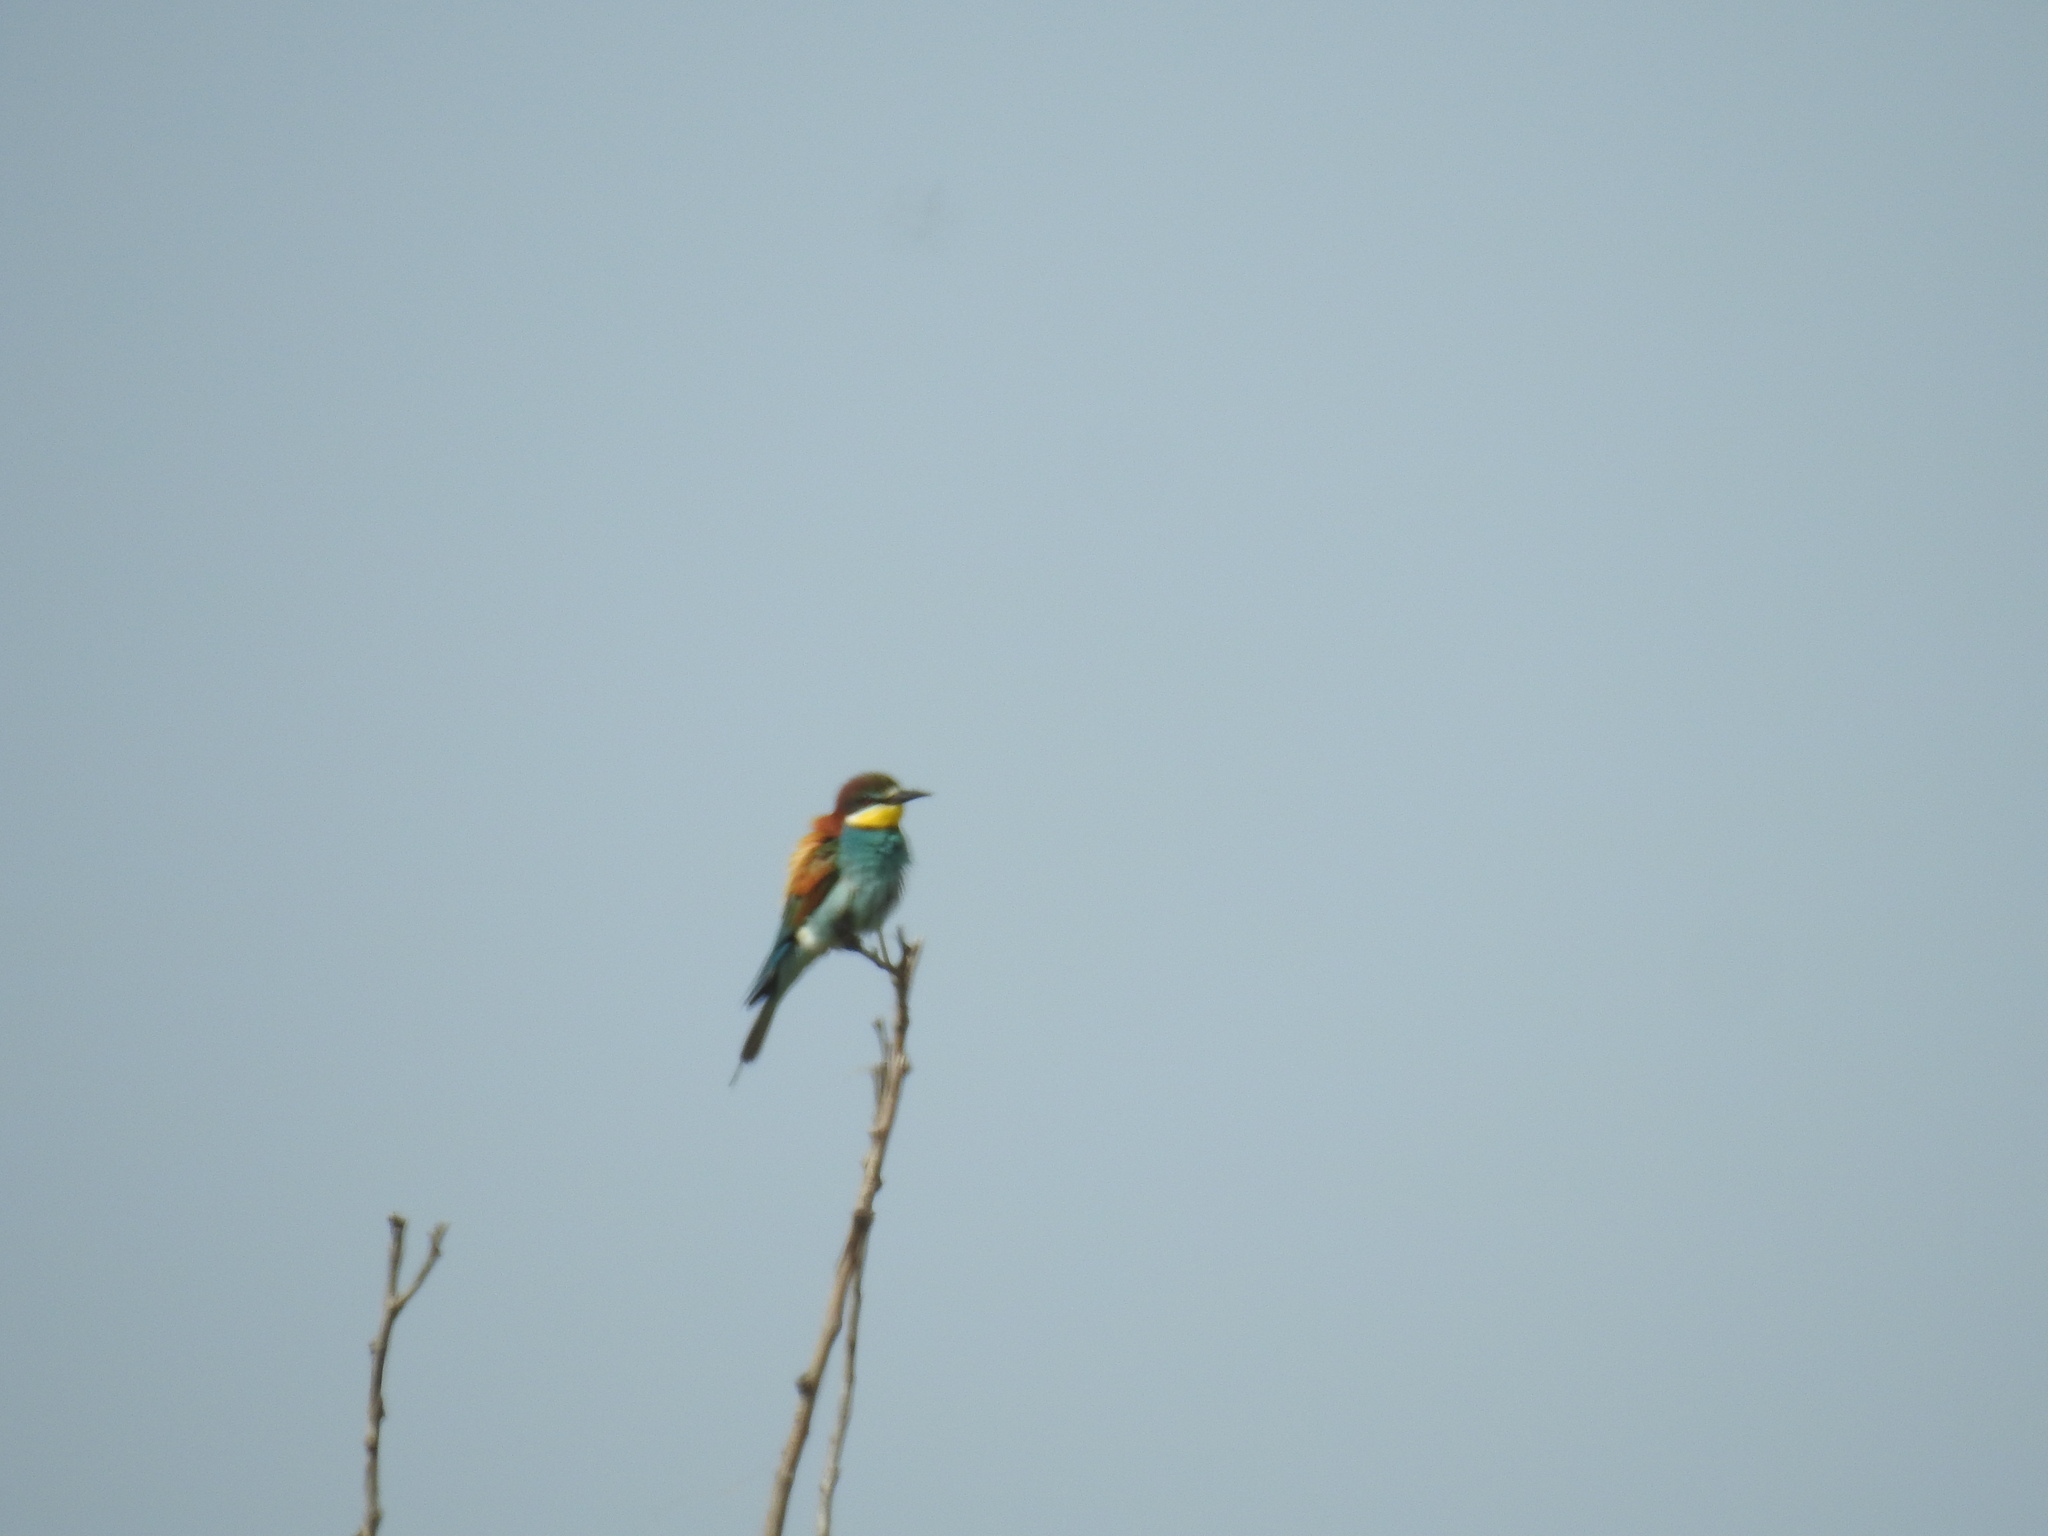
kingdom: Animalia
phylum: Chordata
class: Aves
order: Coraciiformes
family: Meropidae
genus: Merops
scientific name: Merops apiaster
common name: European bee-eater
